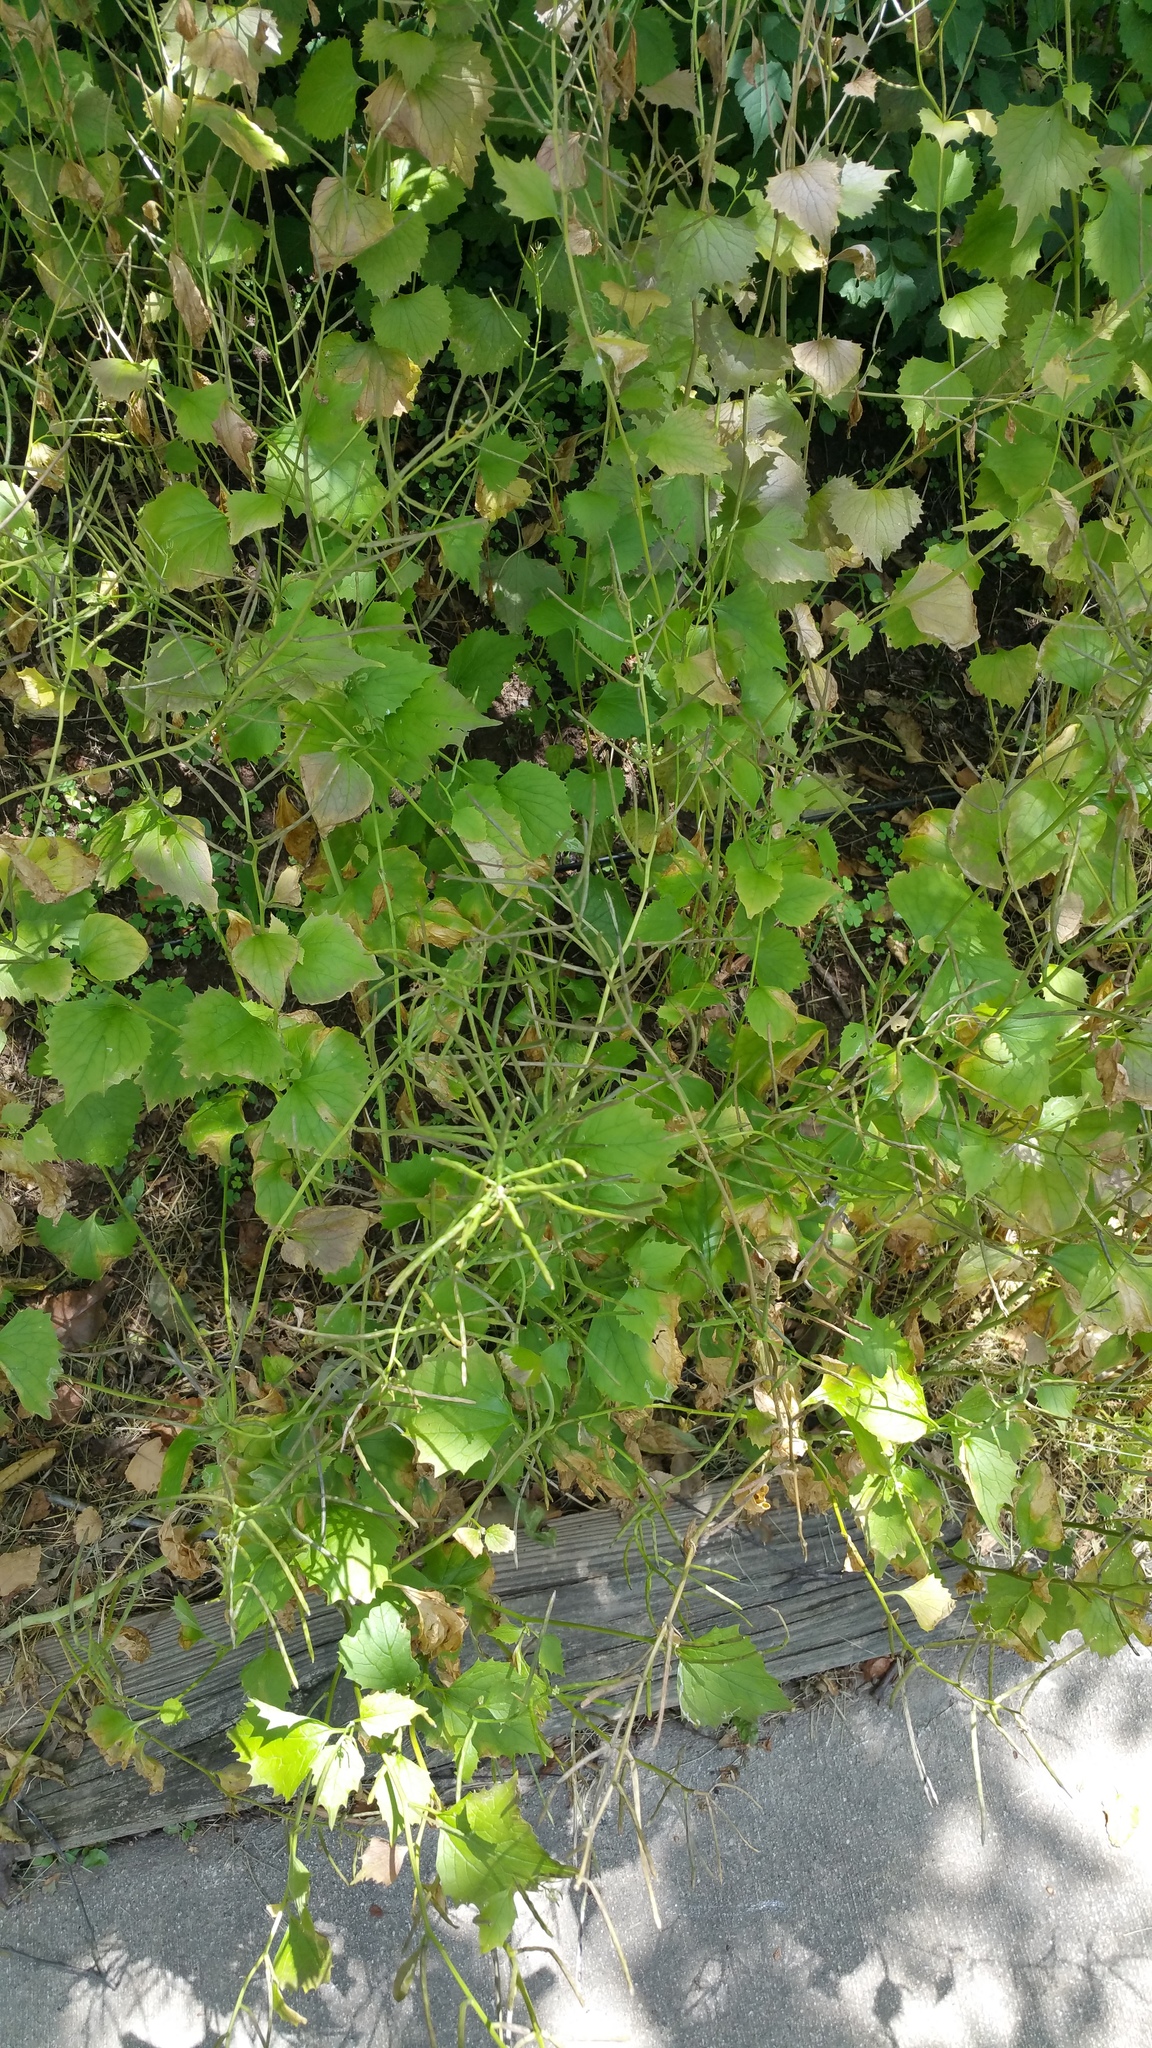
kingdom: Plantae
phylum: Tracheophyta
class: Magnoliopsida
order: Brassicales
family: Brassicaceae
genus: Alliaria
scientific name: Alliaria petiolata
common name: Garlic mustard
